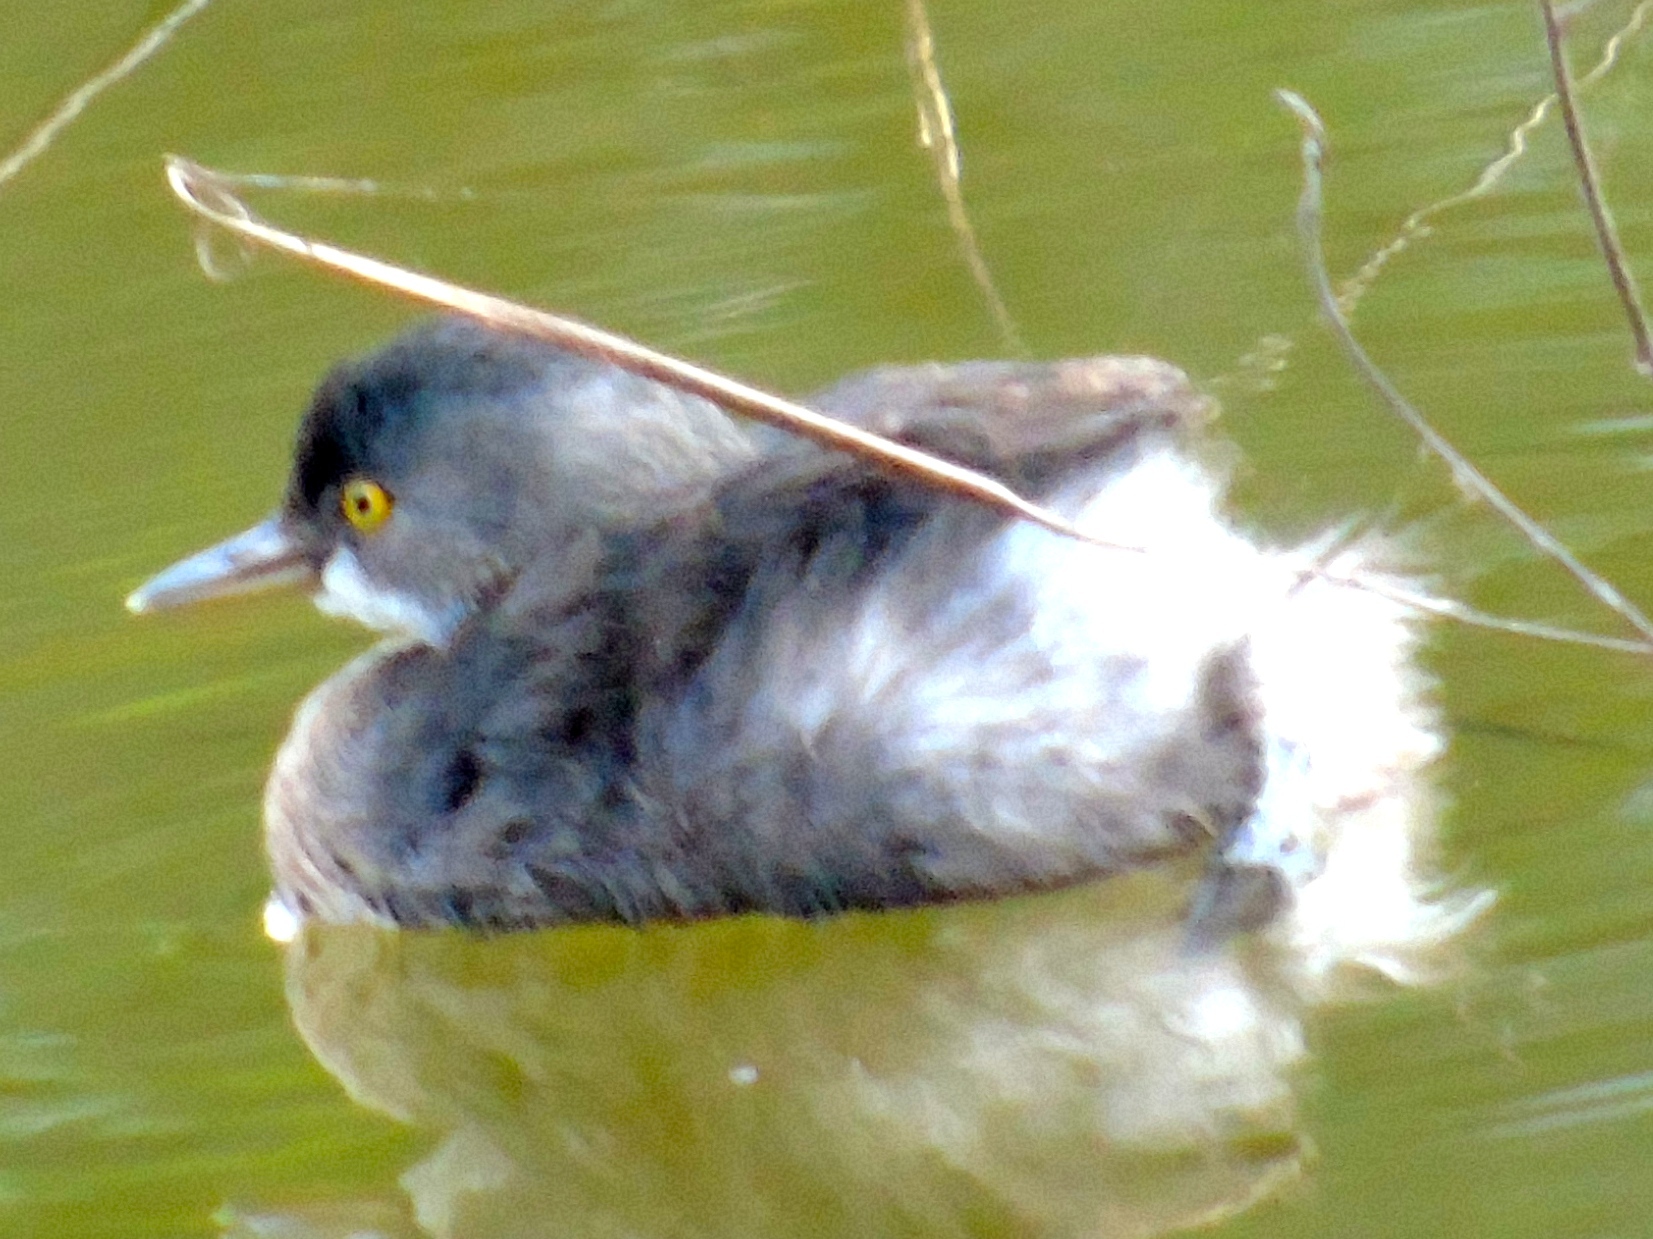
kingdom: Animalia
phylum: Chordata
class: Aves
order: Podicipediformes
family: Podicipedidae
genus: Tachybaptus
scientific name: Tachybaptus dominicus
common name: Least grebe
